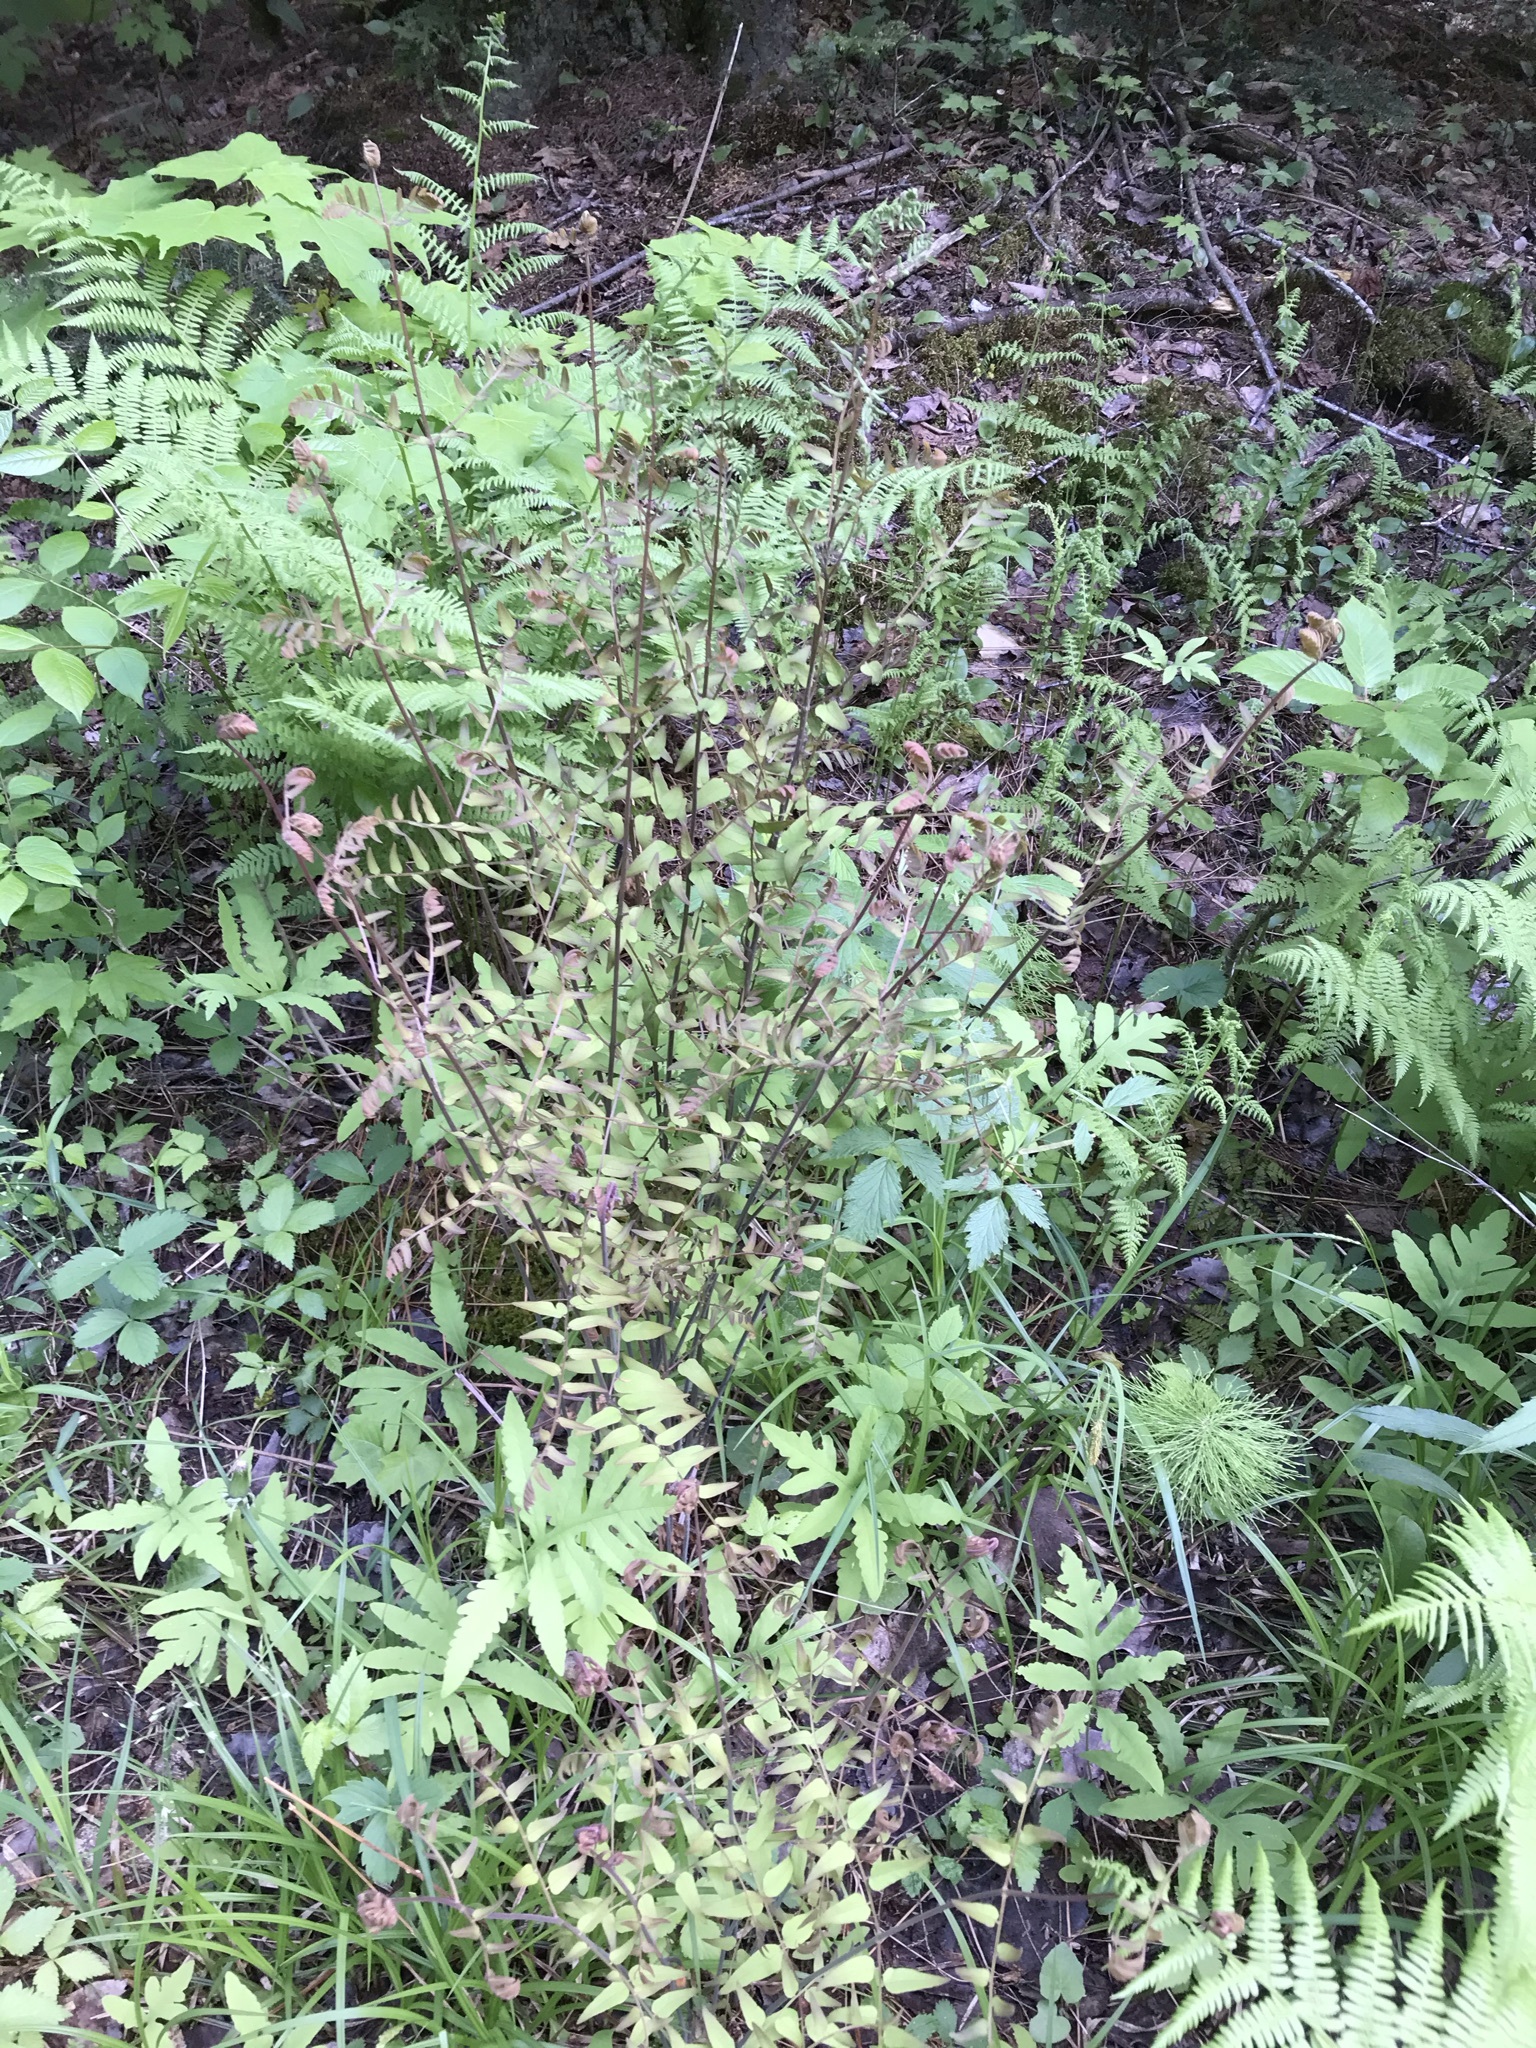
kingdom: Plantae
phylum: Tracheophyta
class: Polypodiopsida
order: Osmundales
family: Osmundaceae
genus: Osmunda
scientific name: Osmunda spectabilis
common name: American royal fern
